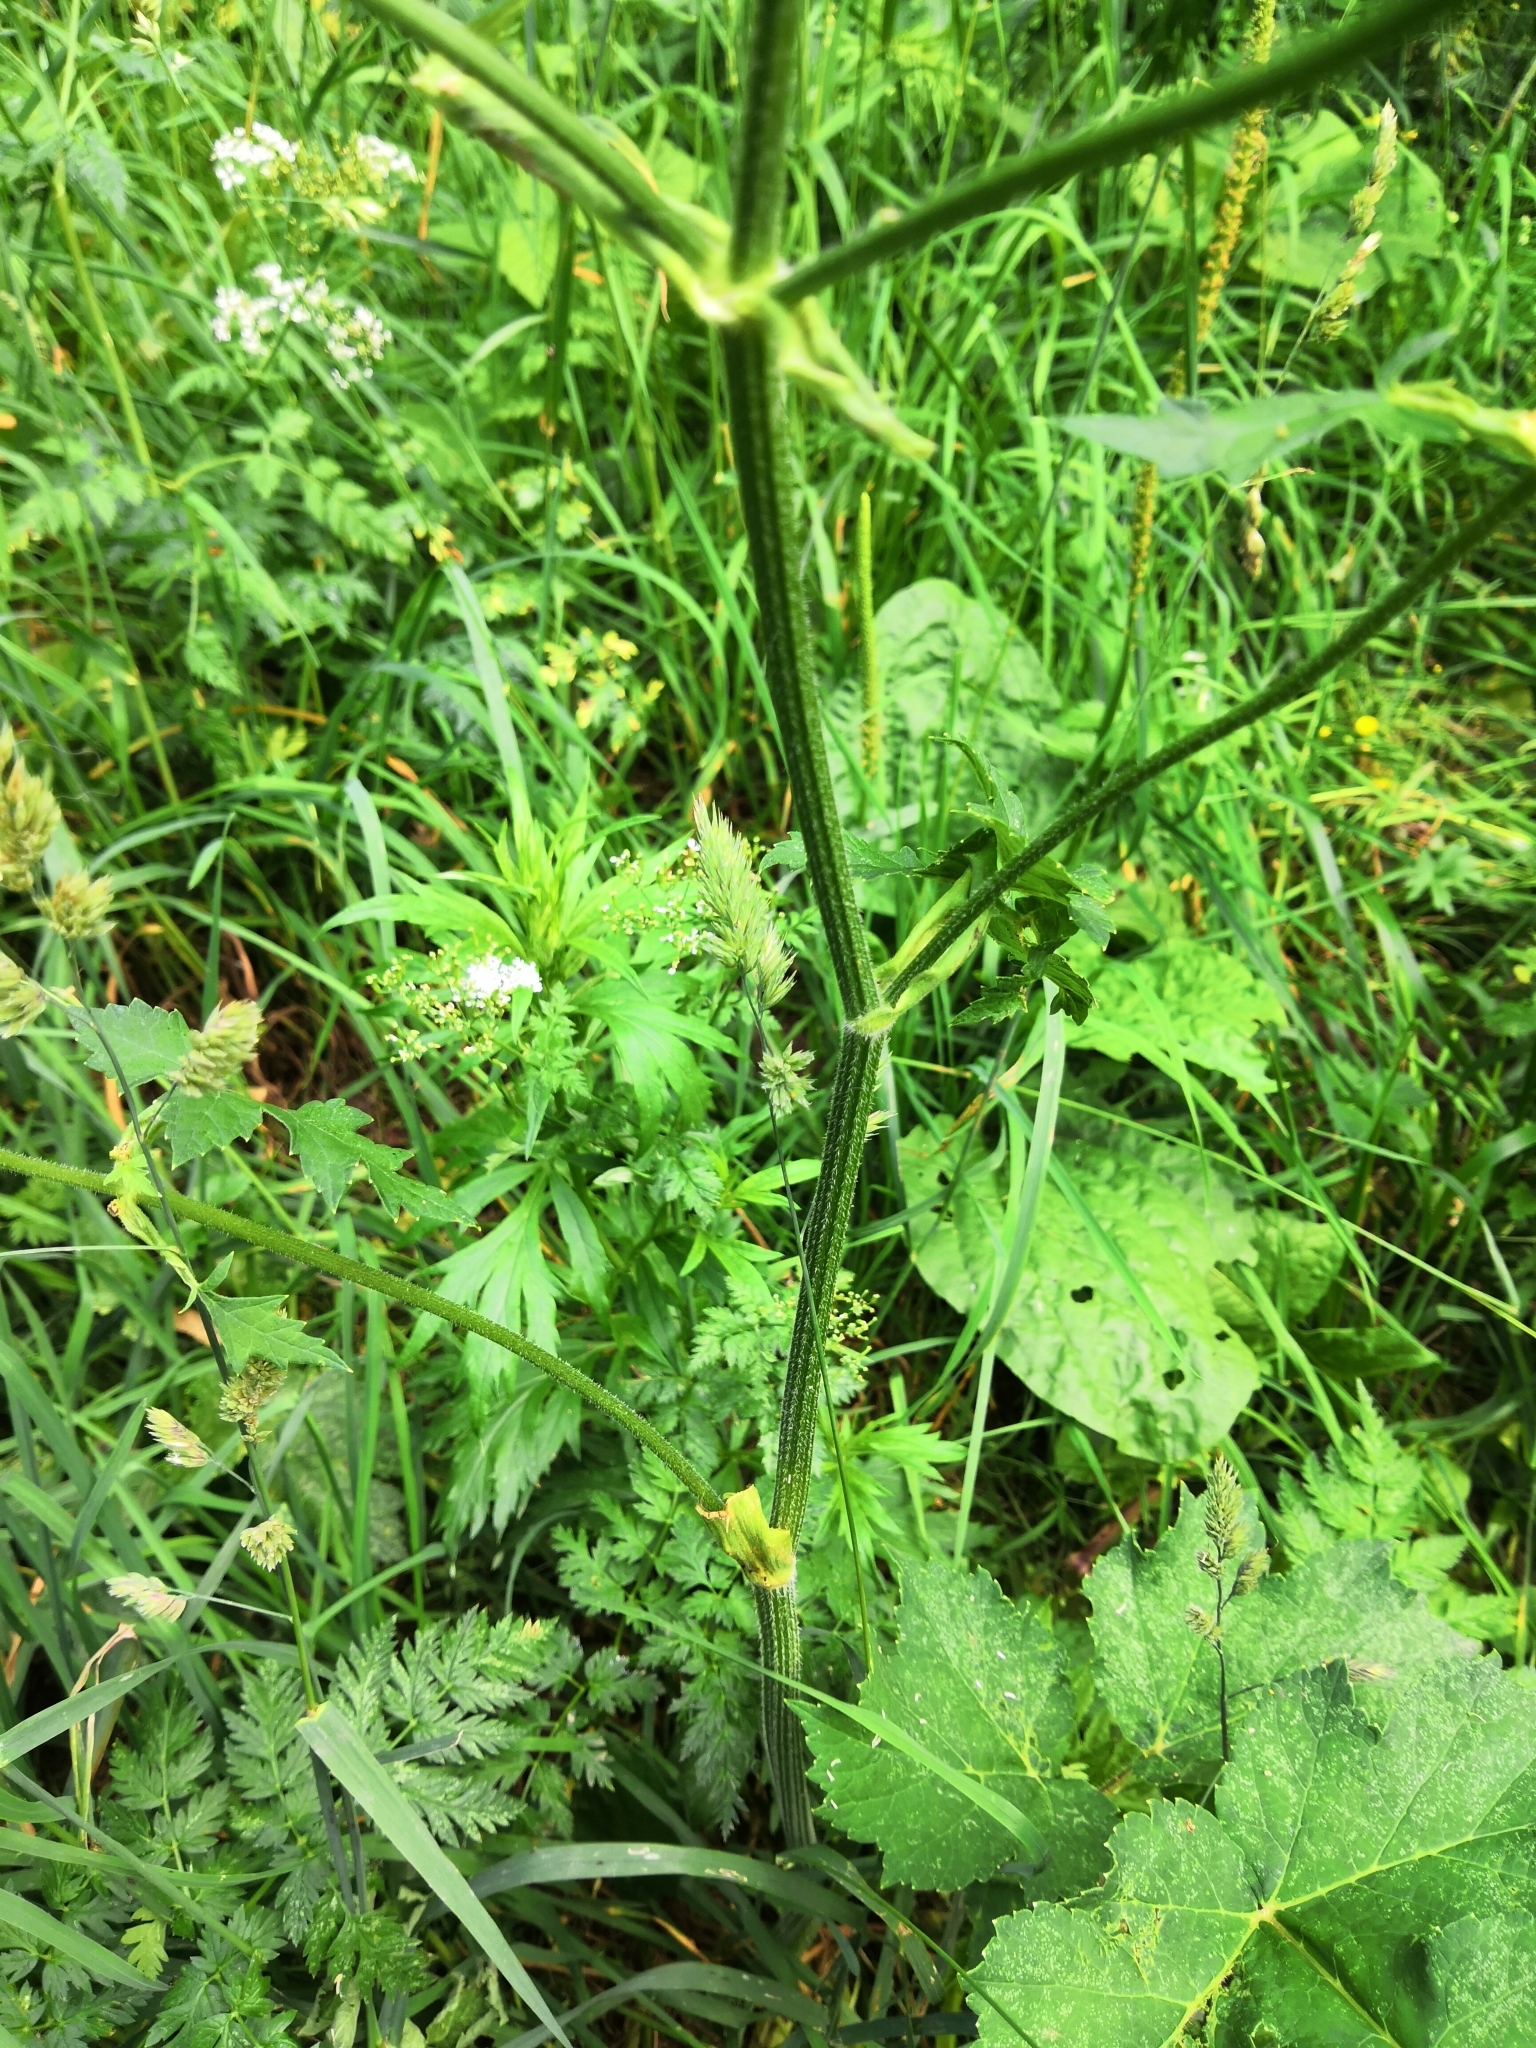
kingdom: Plantae
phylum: Tracheophyta
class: Magnoliopsida
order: Apiales
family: Apiaceae
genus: Heracleum
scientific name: Heracleum sphondylium
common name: Hogweed
